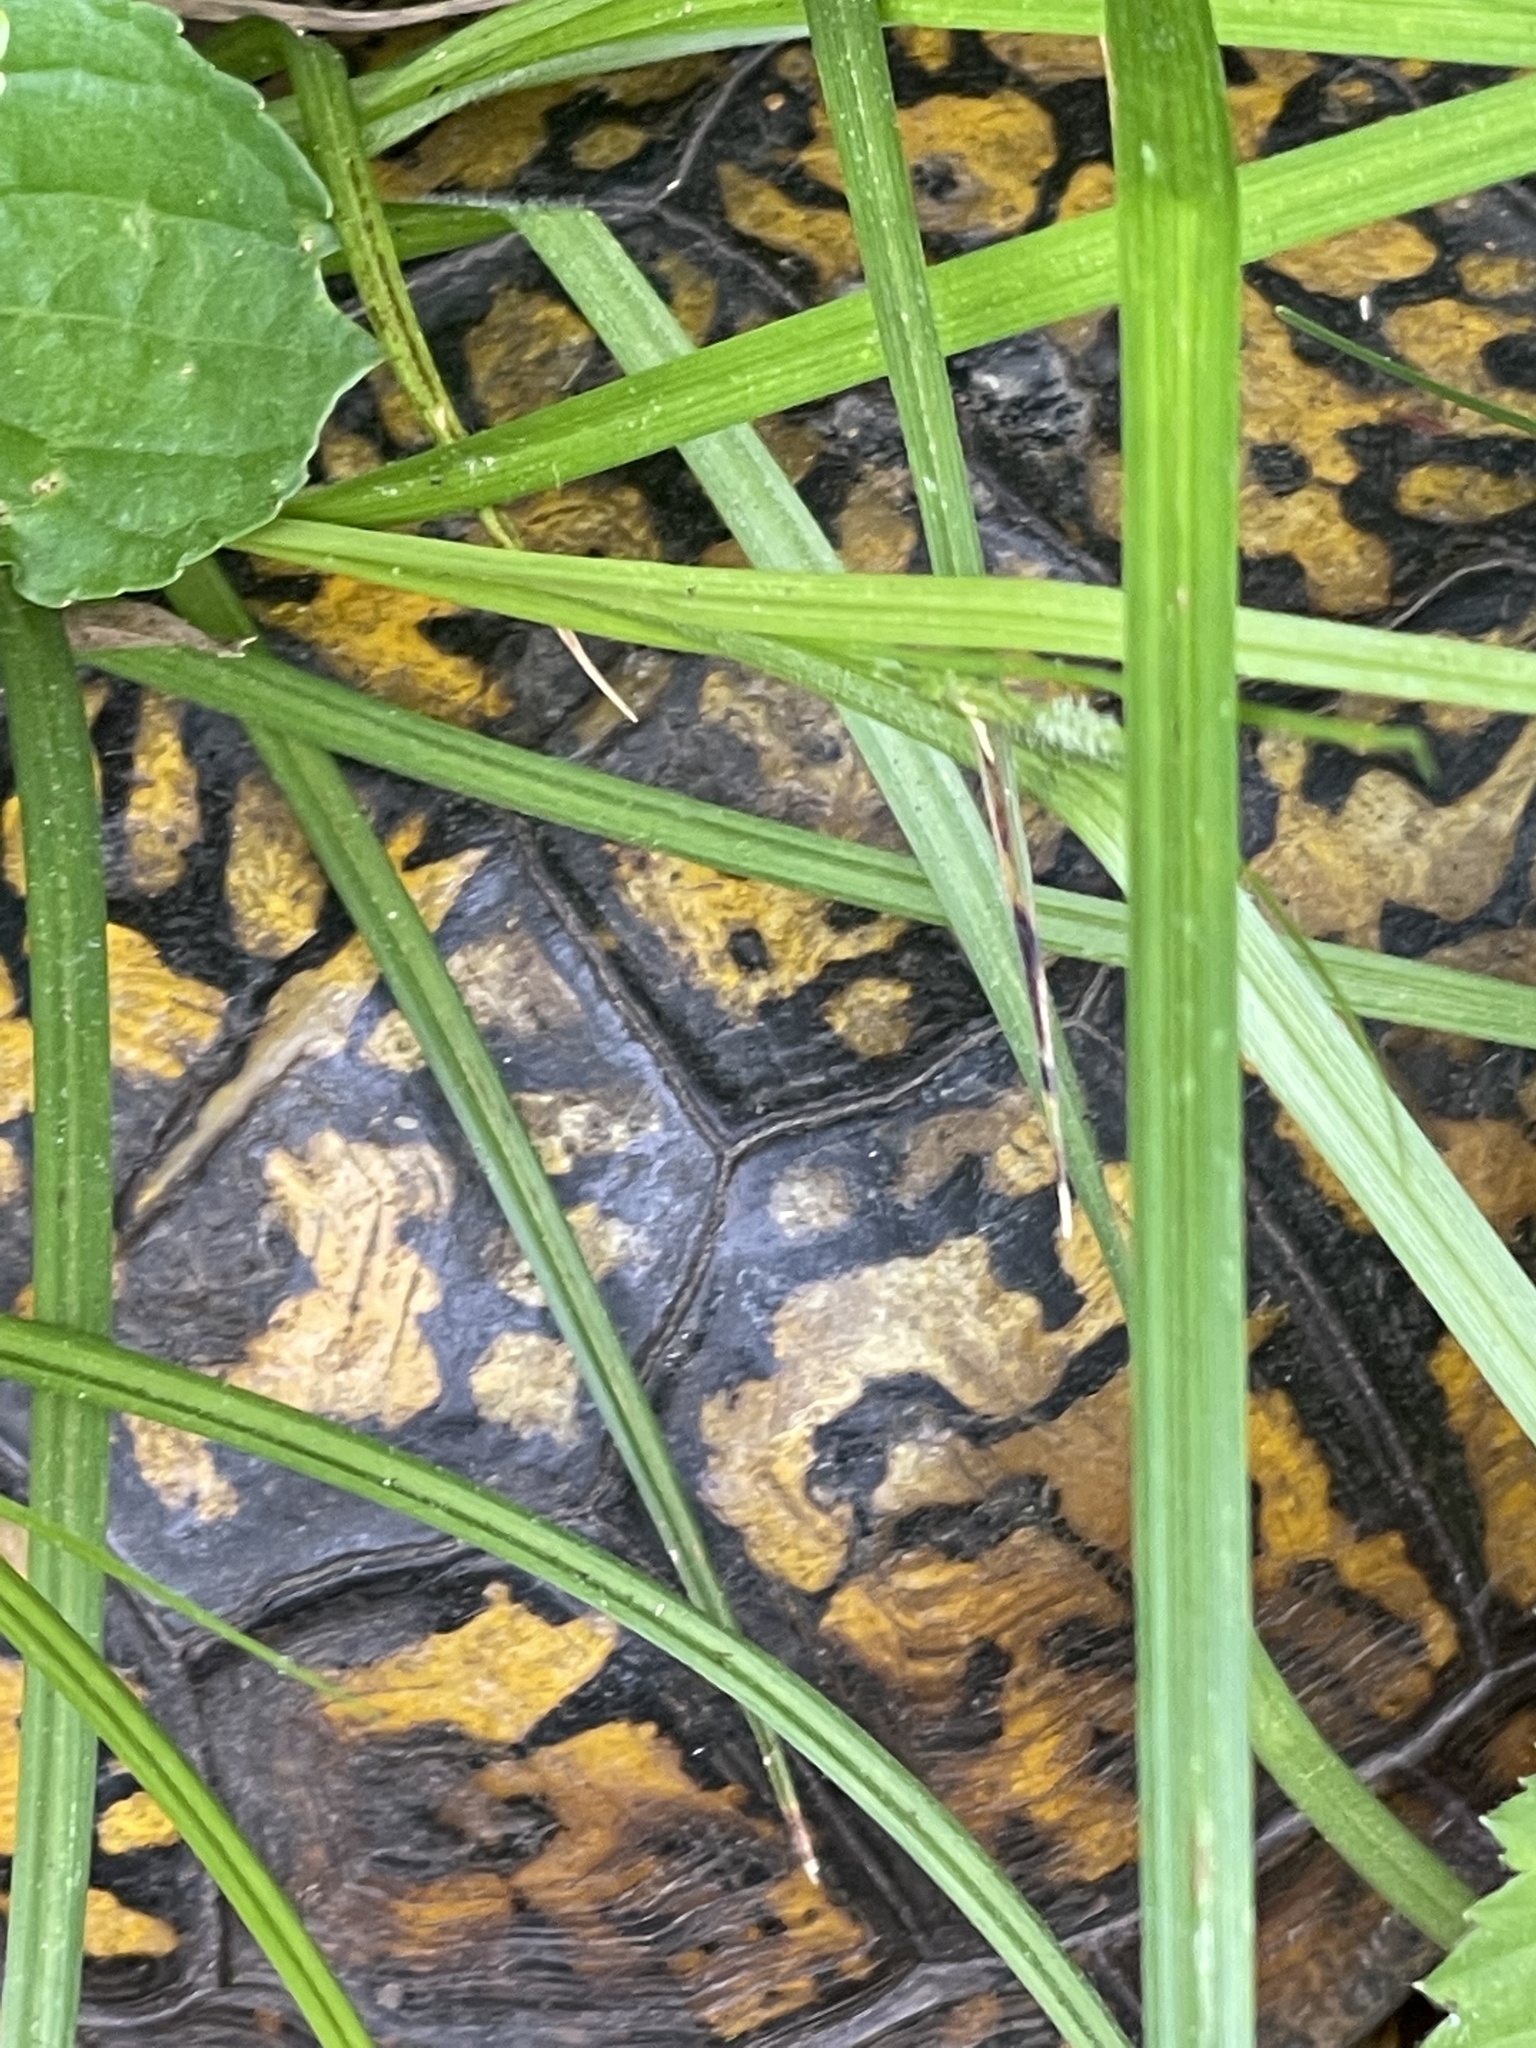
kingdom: Animalia
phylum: Chordata
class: Testudines
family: Emydidae
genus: Terrapene
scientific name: Terrapene carolina
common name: Common box turtle
